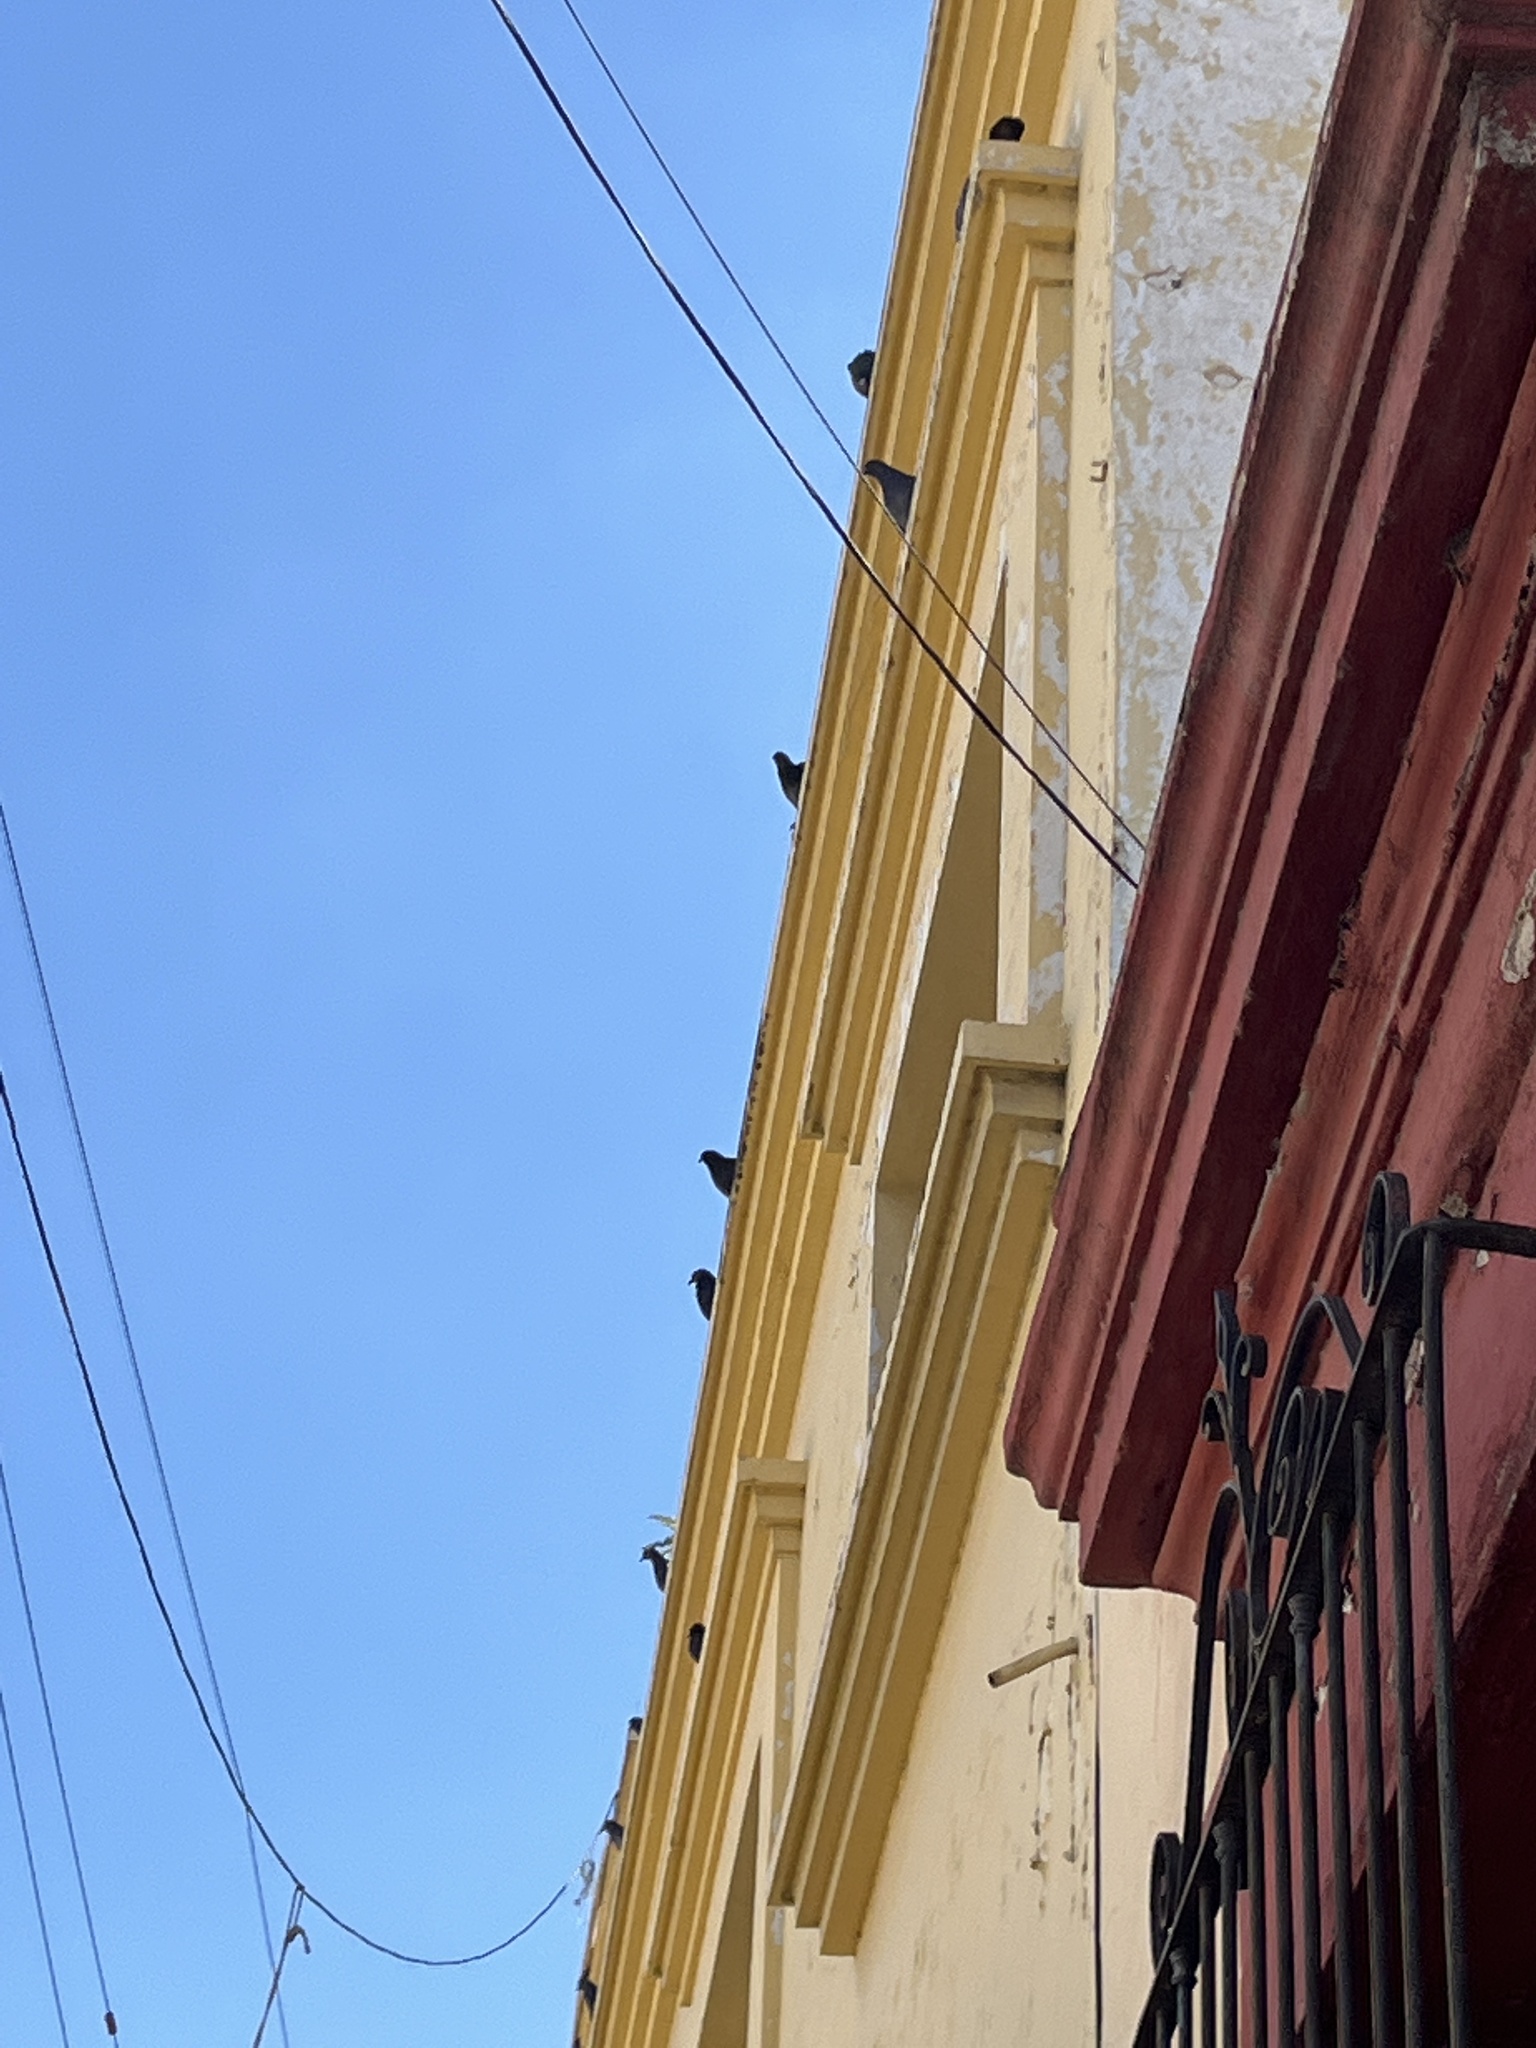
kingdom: Animalia
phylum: Chordata
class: Aves
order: Columbiformes
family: Columbidae
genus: Columba
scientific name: Columba livia
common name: Rock pigeon
